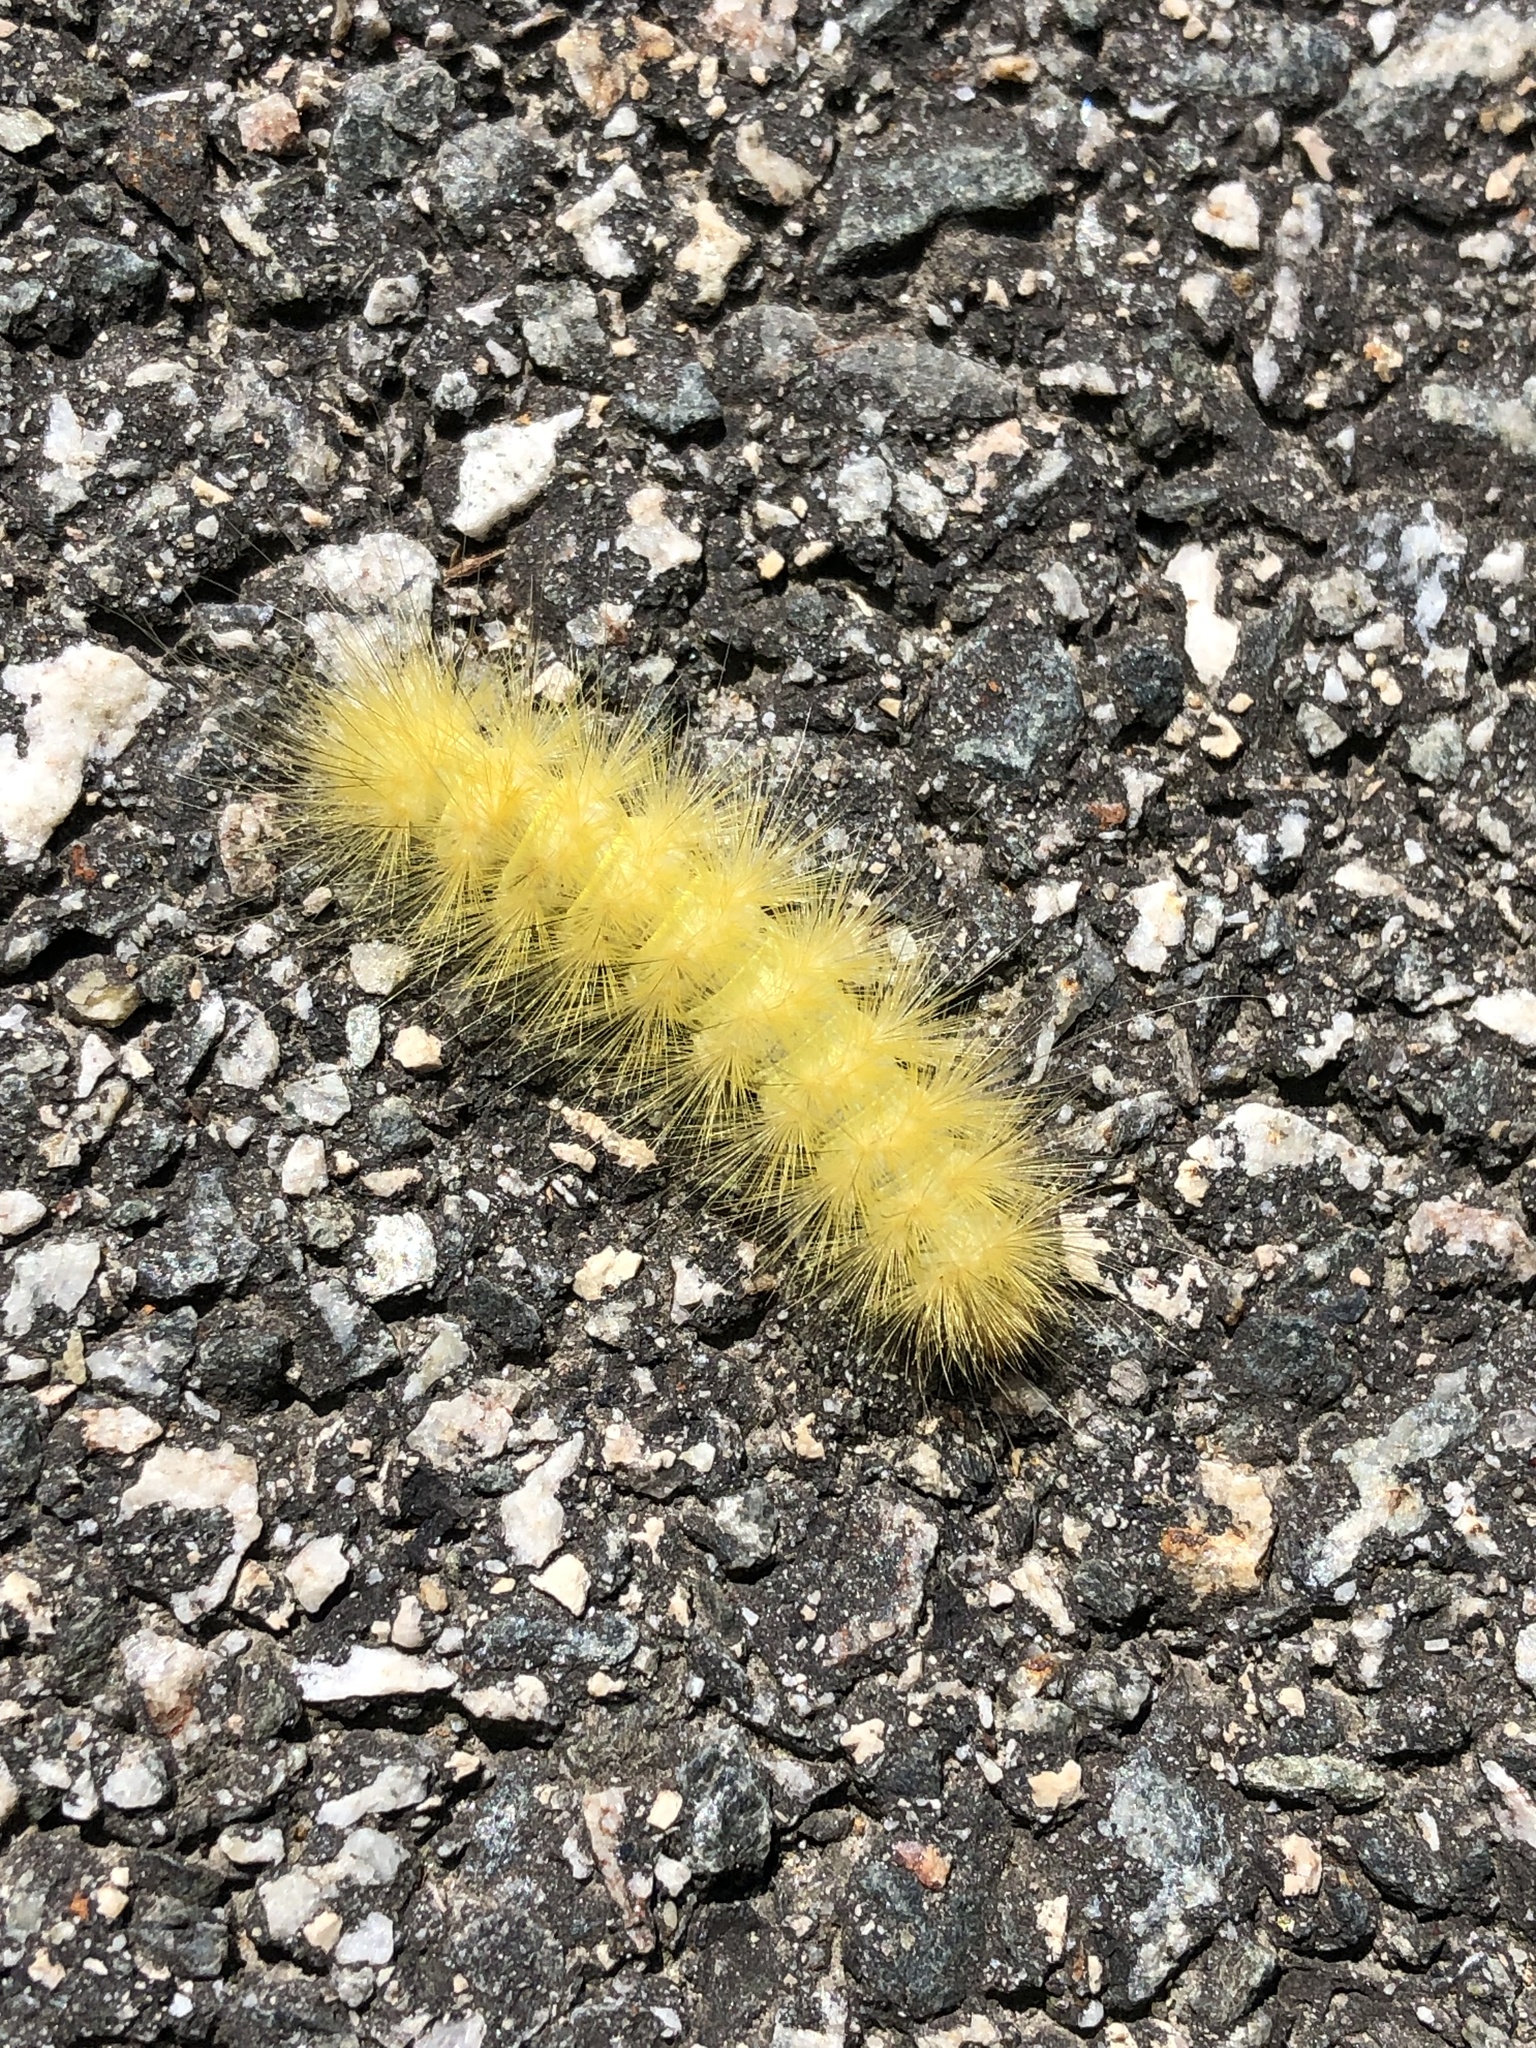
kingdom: Animalia
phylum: Arthropoda
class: Insecta
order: Lepidoptera
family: Erebidae
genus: Spilosoma
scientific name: Spilosoma virginica
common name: Virginia tiger moth
